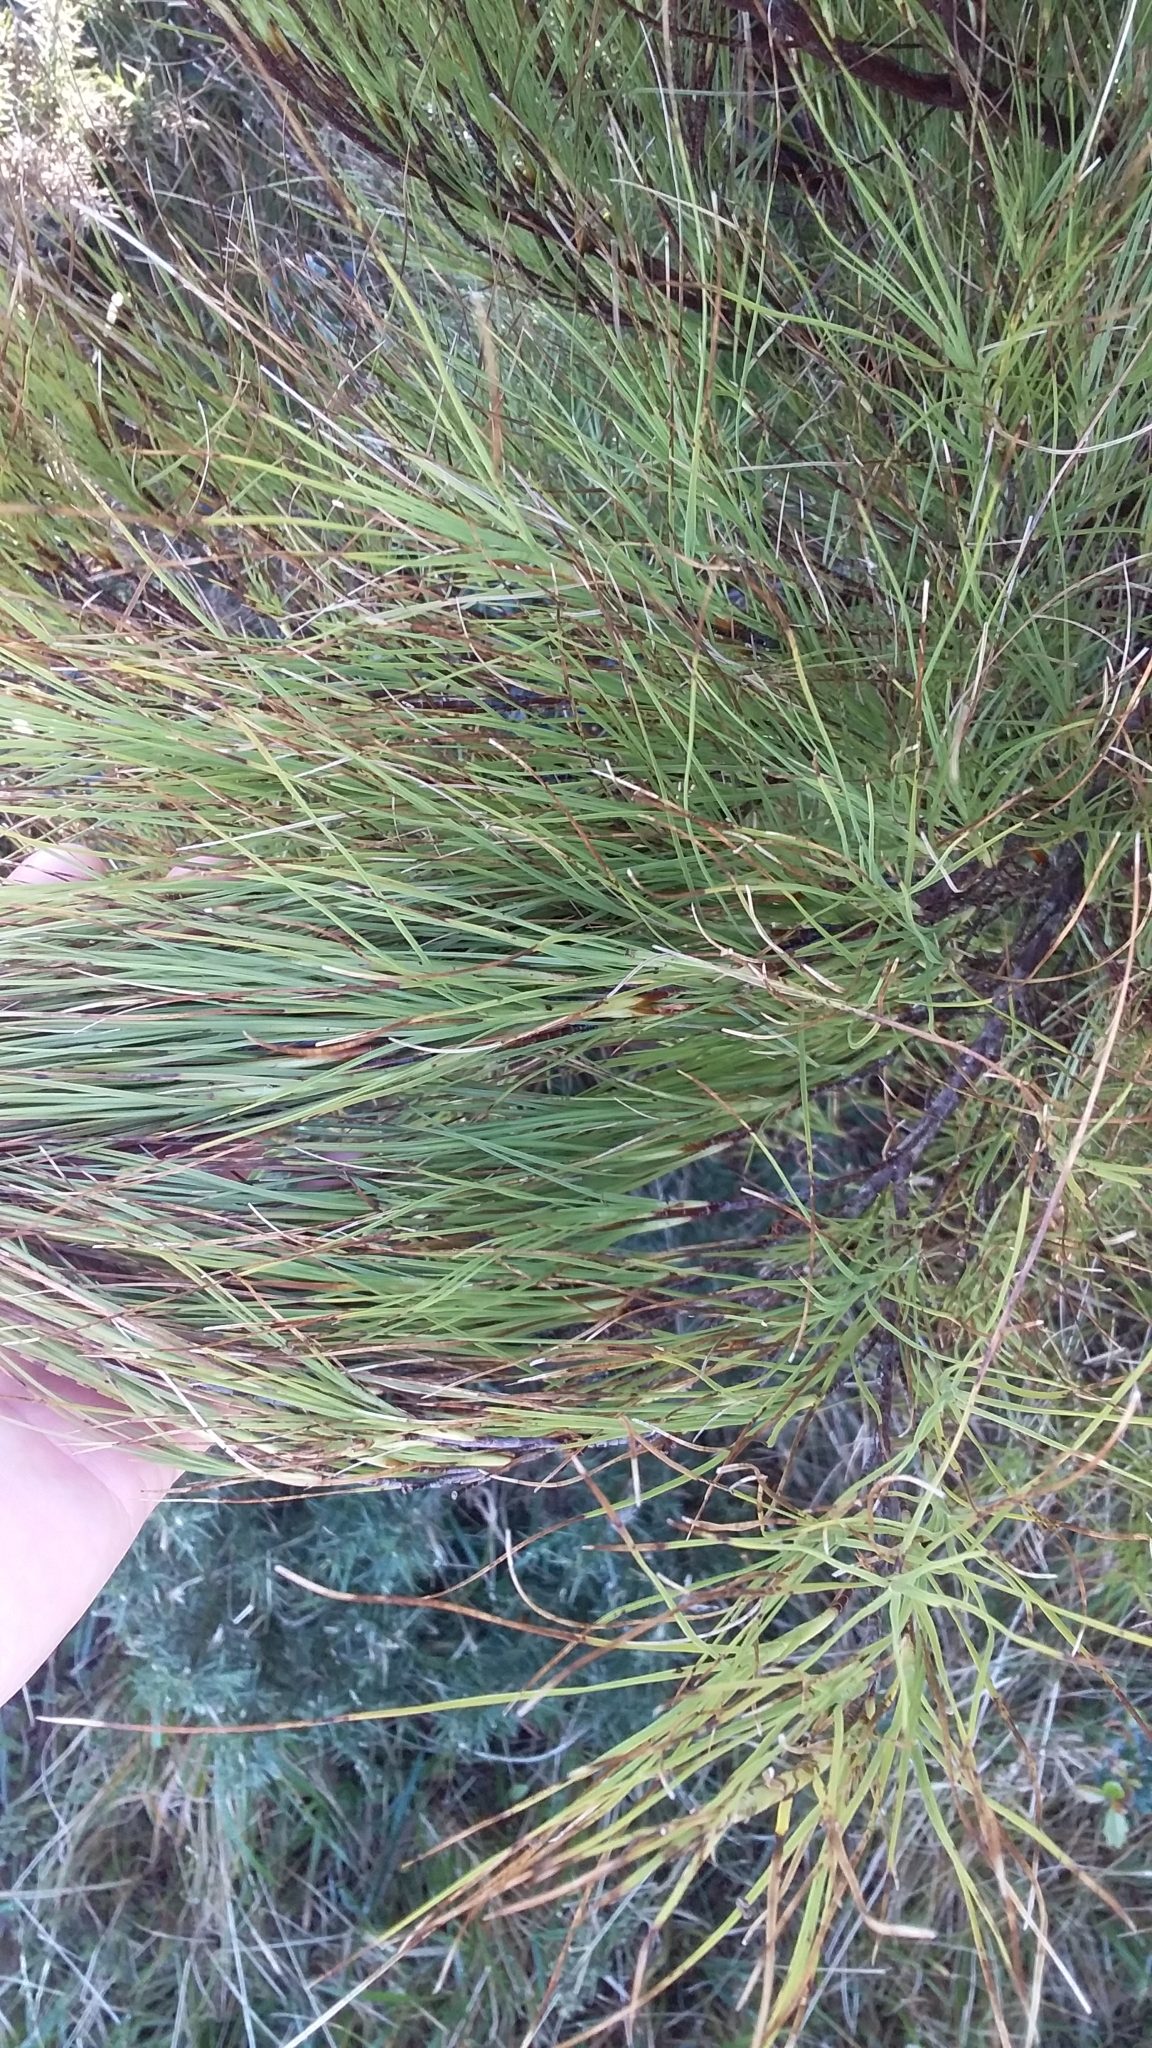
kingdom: Plantae
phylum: Tracheophyta
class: Magnoliopsida
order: Ericales
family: Ericaceae
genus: Dracophyllum
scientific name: Dracophyllum filifolium
